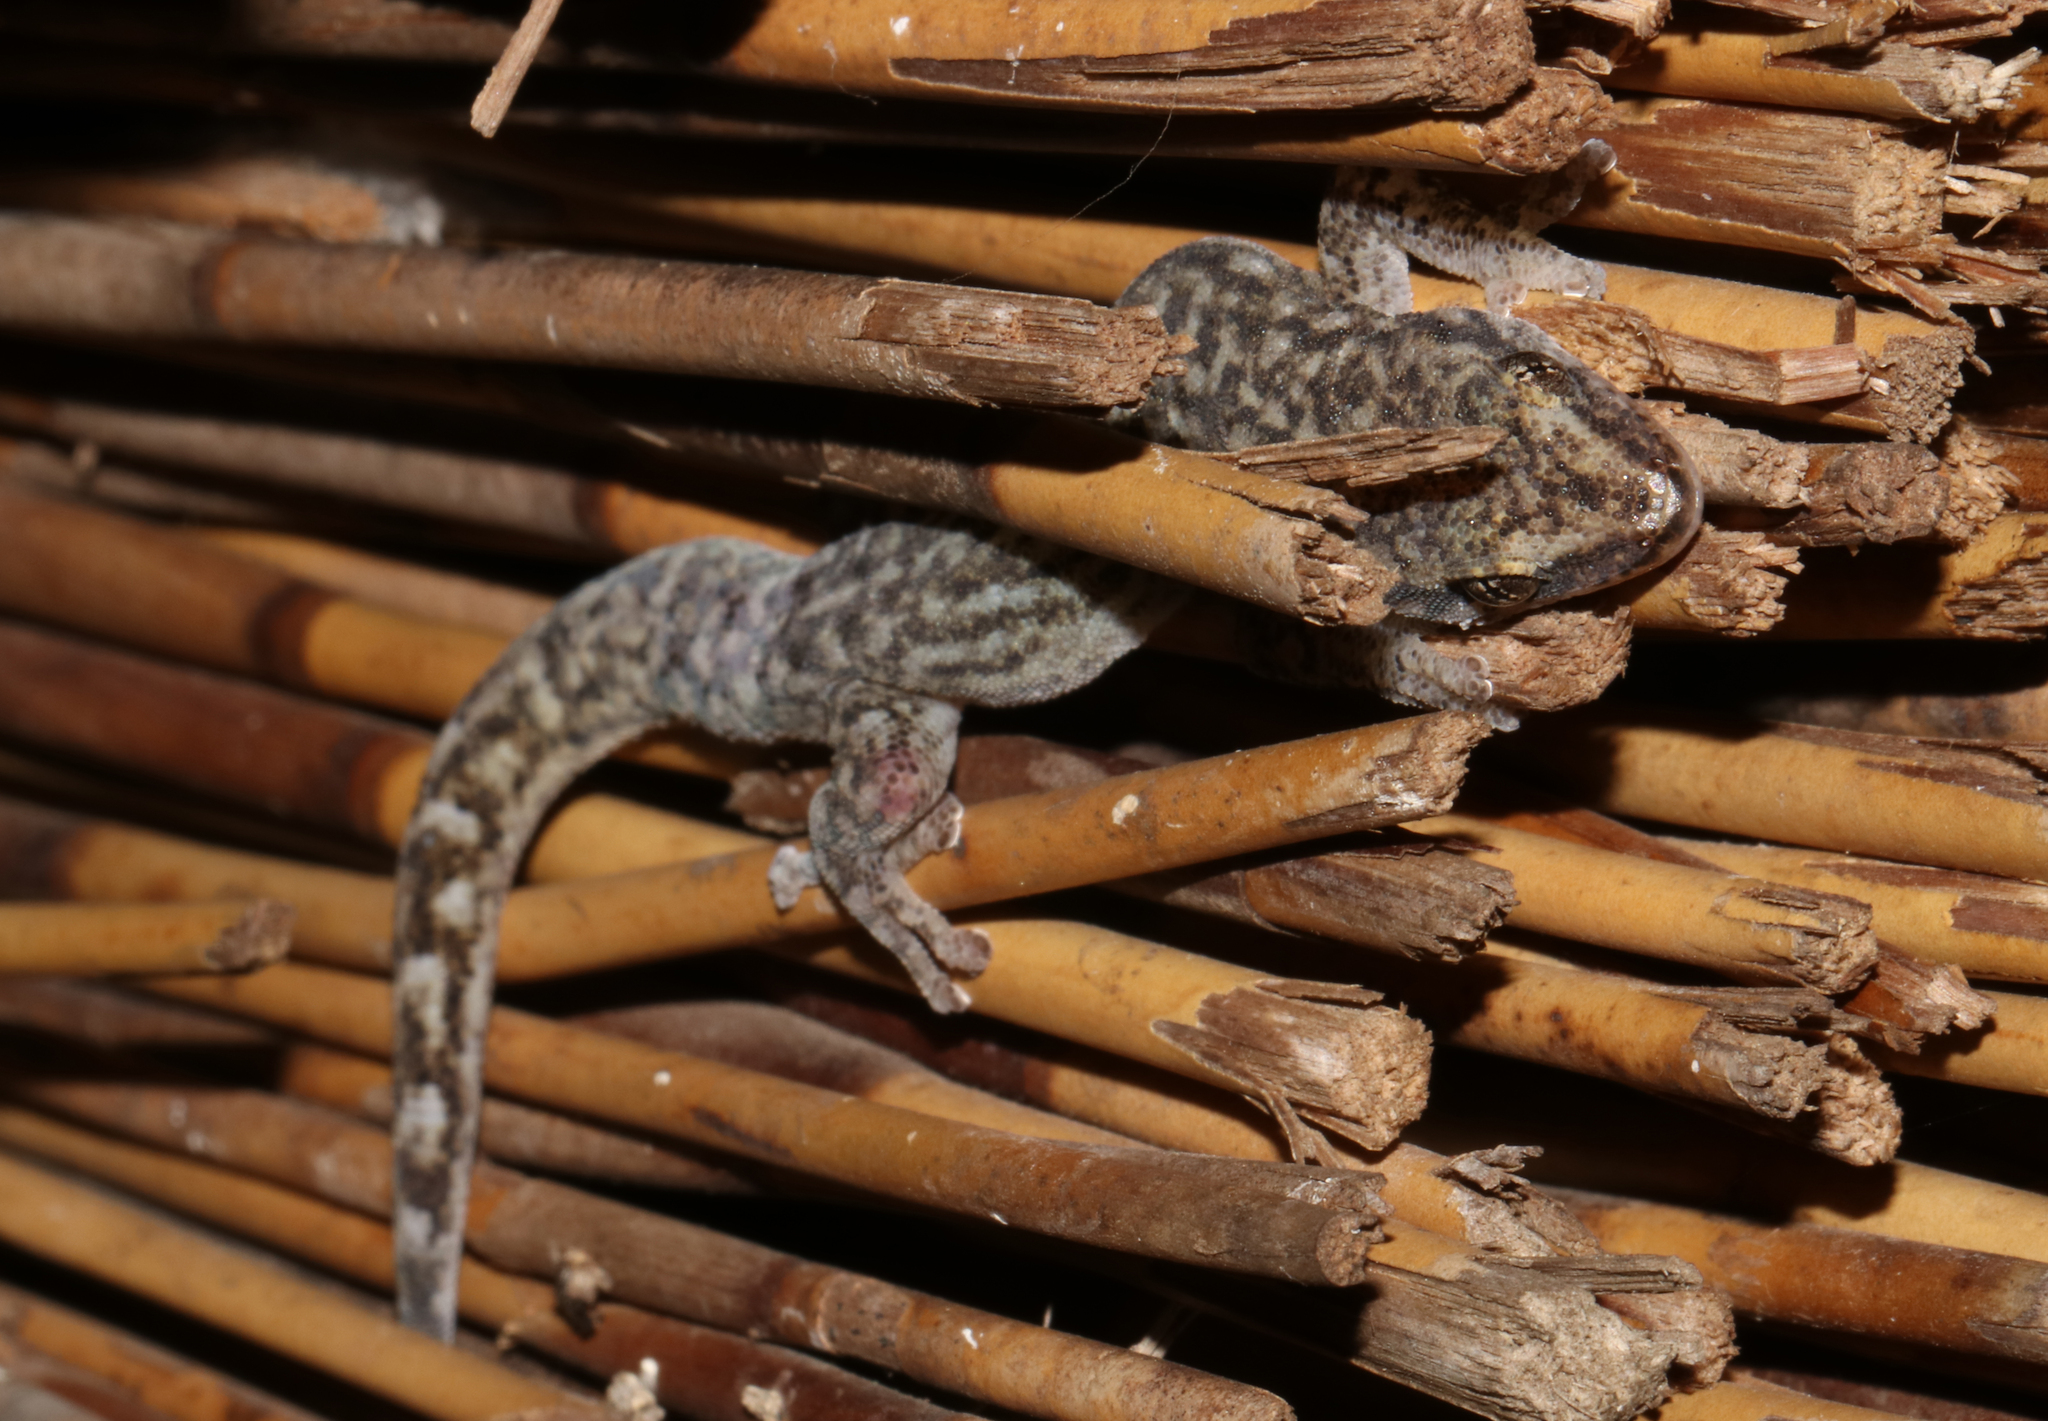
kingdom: Animalia
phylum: Chordata
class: Squamata
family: Gekkonidae
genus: Afrogecko
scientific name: Afrogecko porphyreus
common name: Marbled leaf-toed gecko
